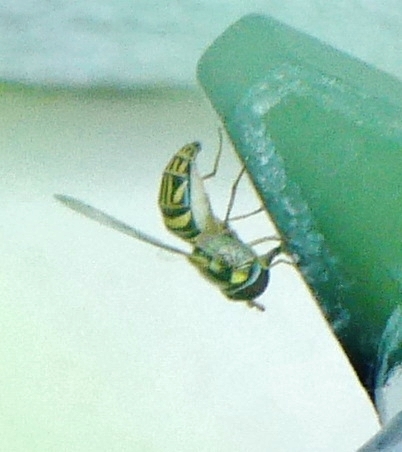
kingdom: Animalia
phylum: Arthropoda
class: Insecta
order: Diptera
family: Syrphidae
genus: Allograpta
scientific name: Allograpta obliqua
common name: Common oblique syrphid
